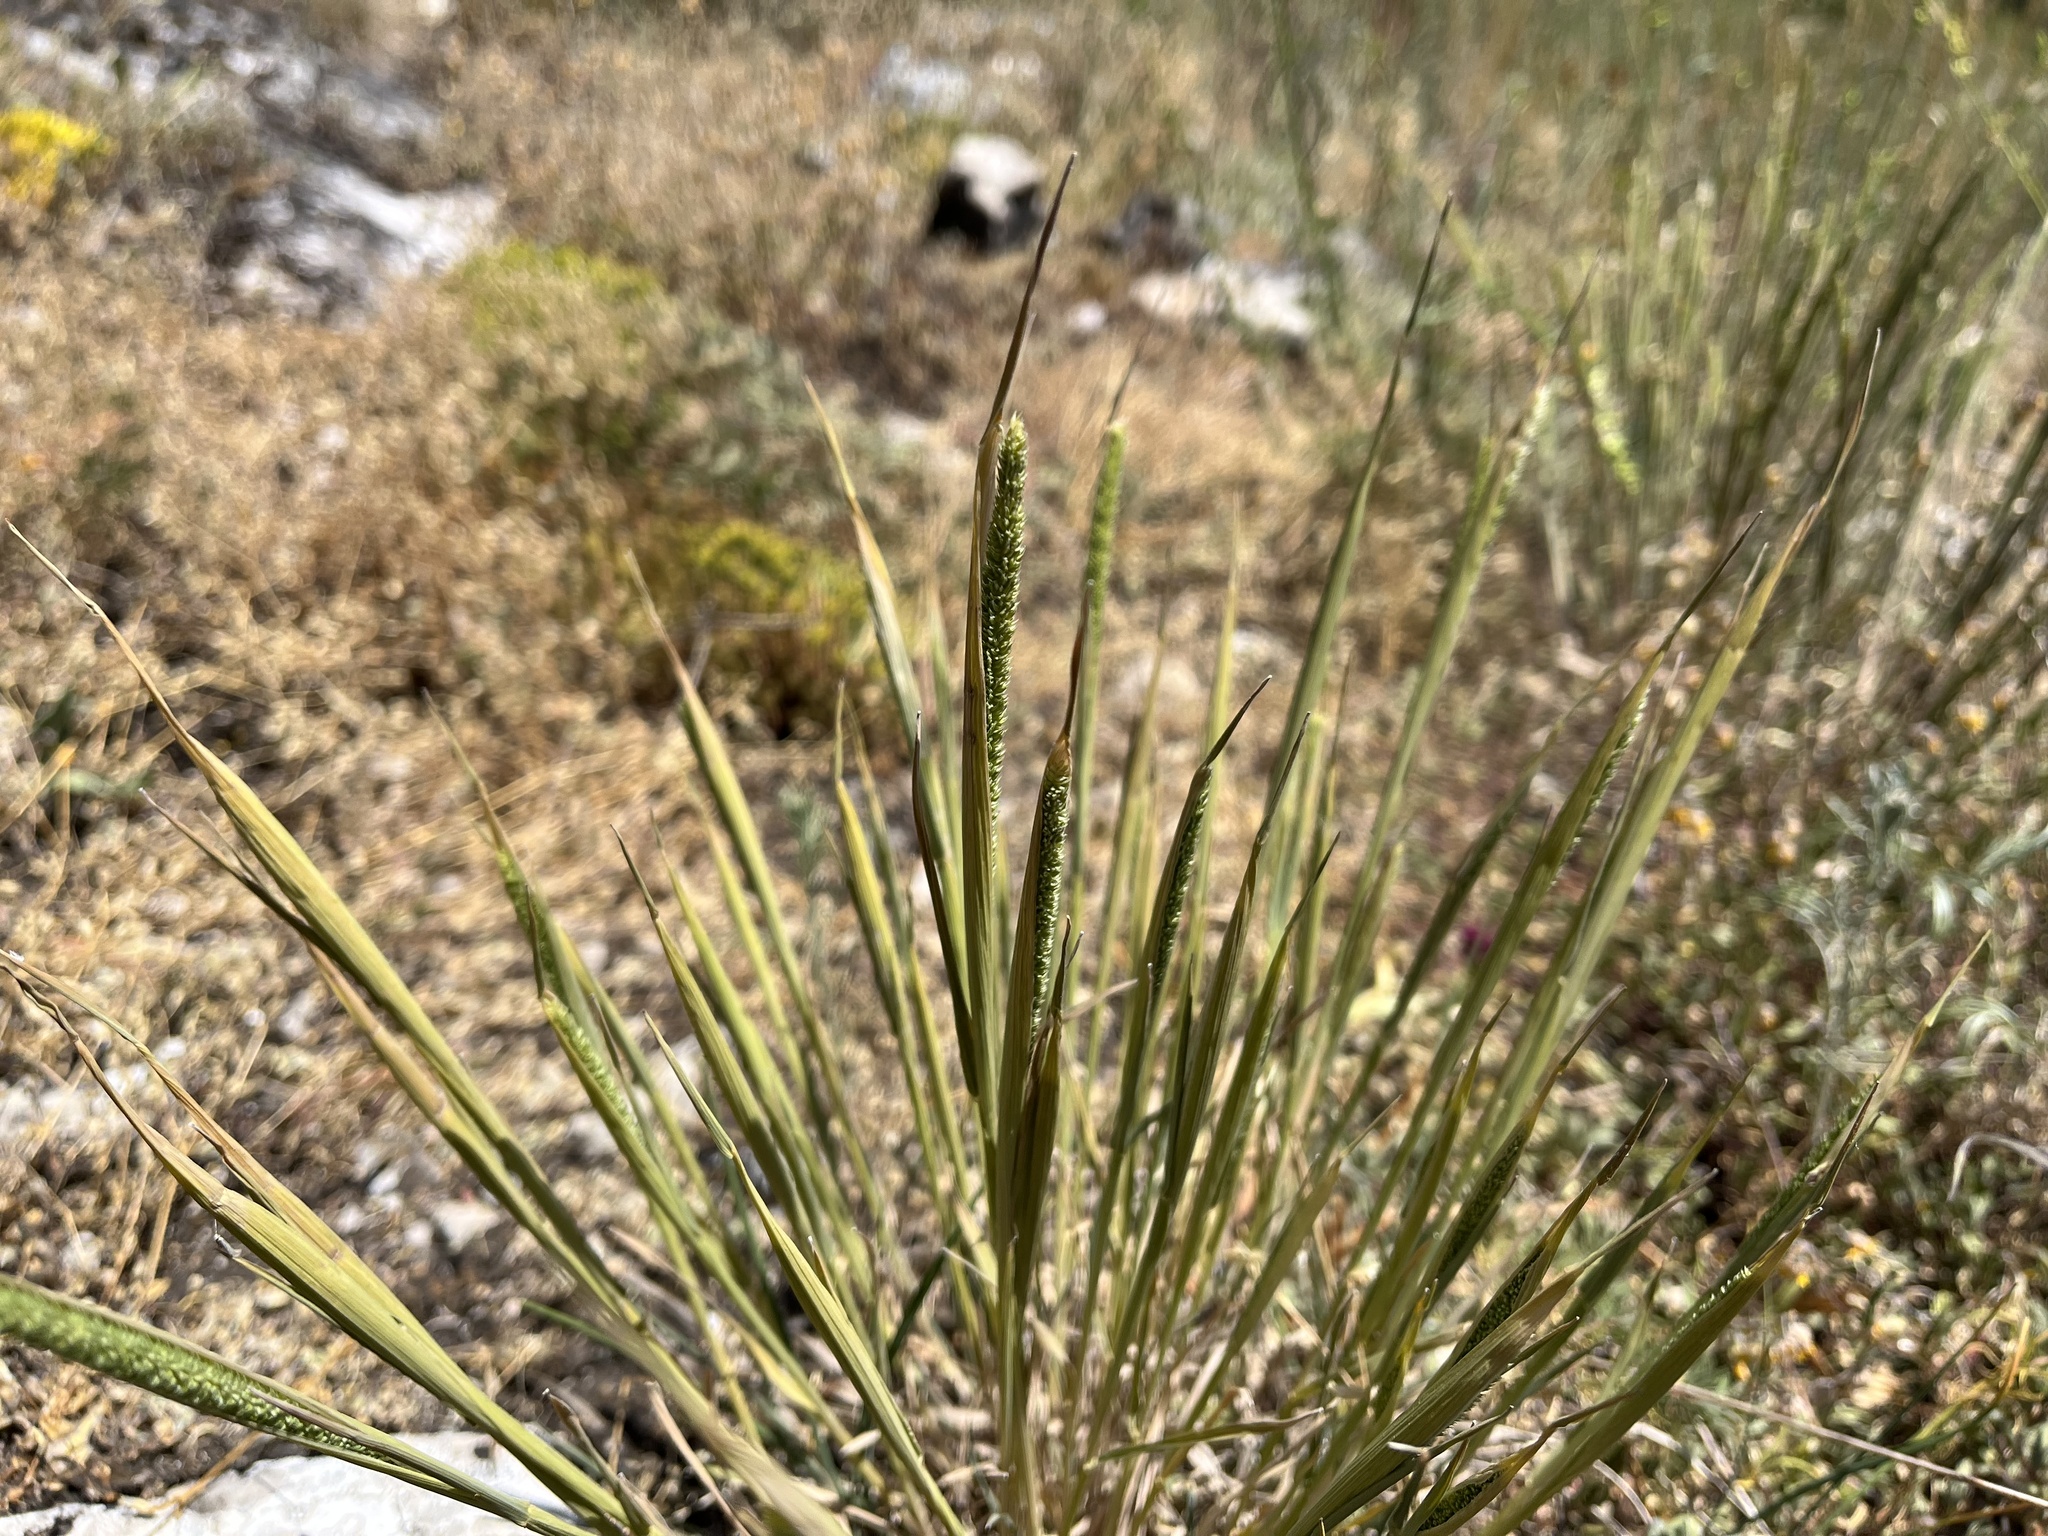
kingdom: Plantae
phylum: Tracheophyta
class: Liliopsida
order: Poales
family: Poaceae
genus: Phleum
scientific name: Phleum phleoides
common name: Purple-stem cat's-tail
